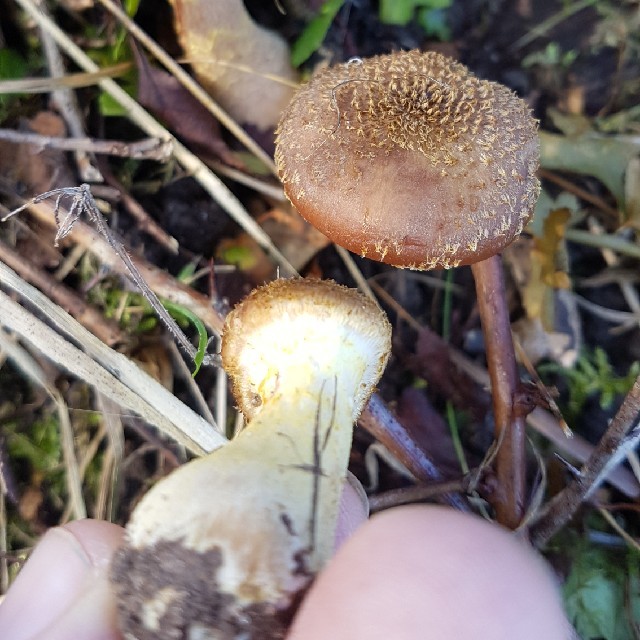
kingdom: Fungi
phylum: Basidiomycota
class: Agaricomycetes
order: Agaricales
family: Physalacriaceae
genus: Armillaria
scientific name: Armillaria gallica
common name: Bulbous honey fungus
